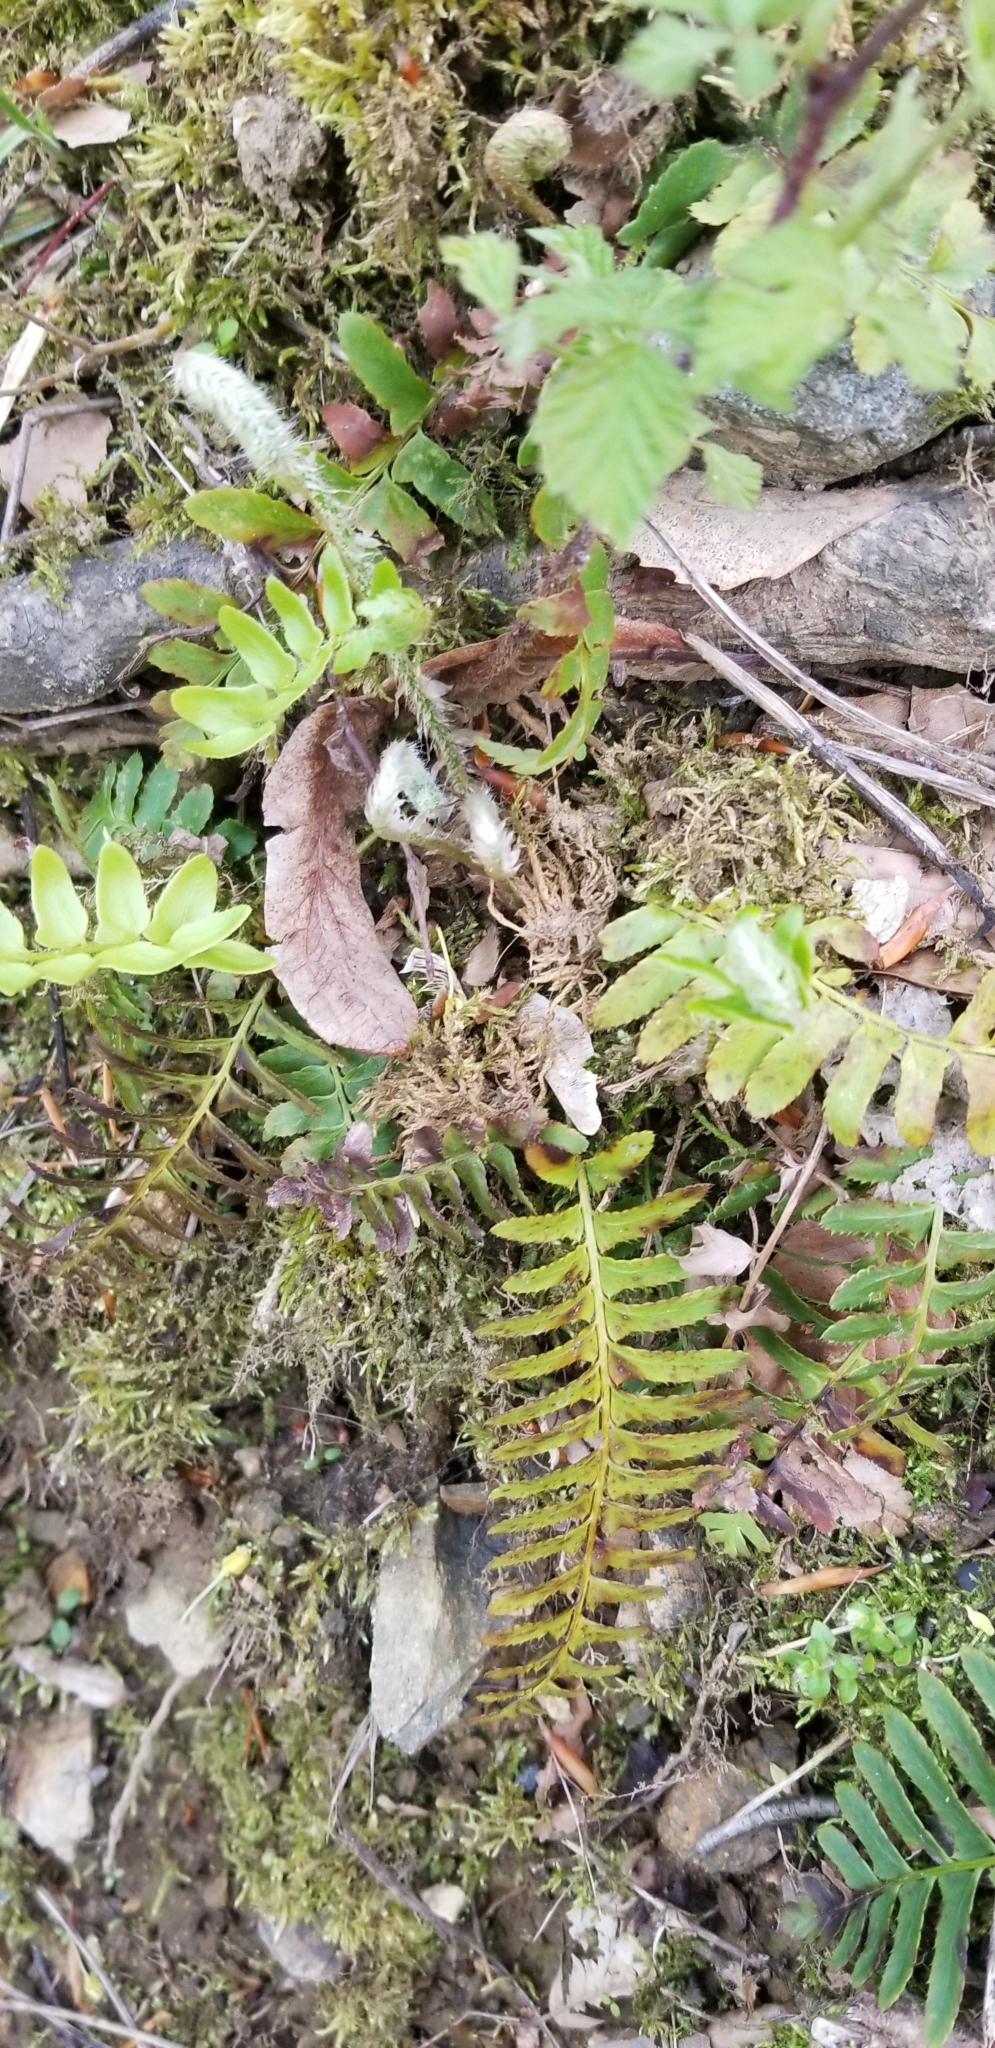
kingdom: Plantae
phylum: Tracheophyta
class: Polypodiopsida
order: Polypodiales
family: Dryopteridaceae
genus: Polystichum
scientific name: Polystichum acrostichoides
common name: Christmas fern
